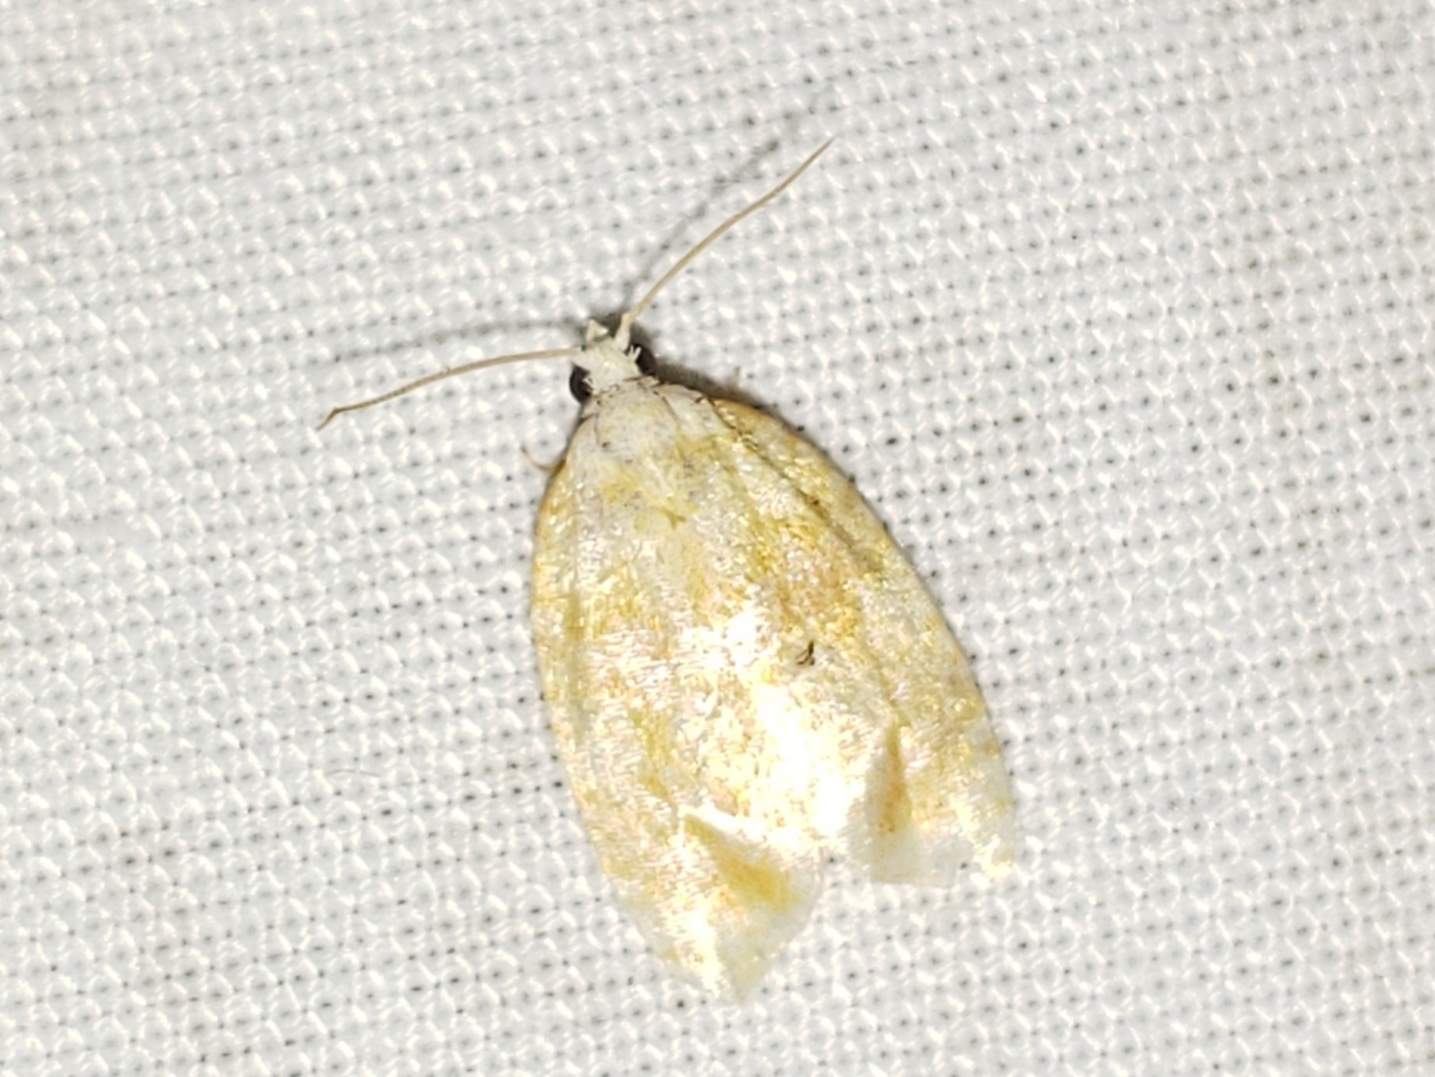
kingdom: Animalia
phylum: Arthropoda
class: Insecta
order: Lepidoptera
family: Tortricidae
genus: Acleris
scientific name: Acleris semipurpurana
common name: Oak leaftier moth
